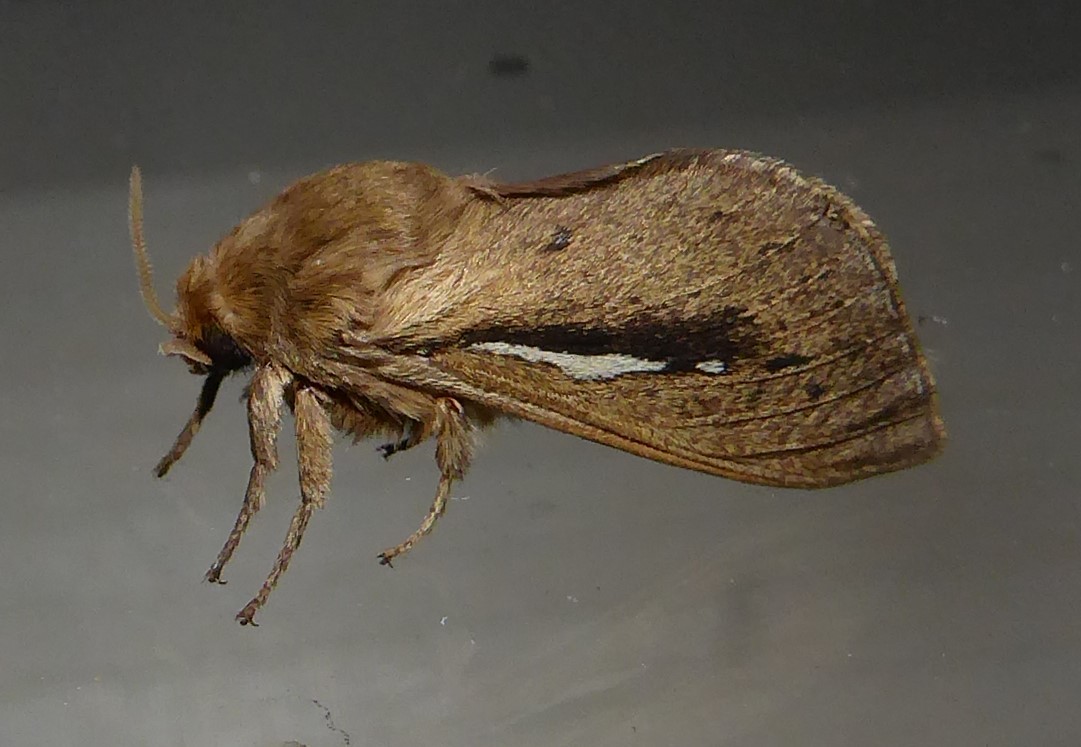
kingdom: Animalia
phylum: Arthropoda
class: Insecta
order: Lepidoptera
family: Hepialidae
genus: Wiseana
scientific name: Wiseana umbraculatus
